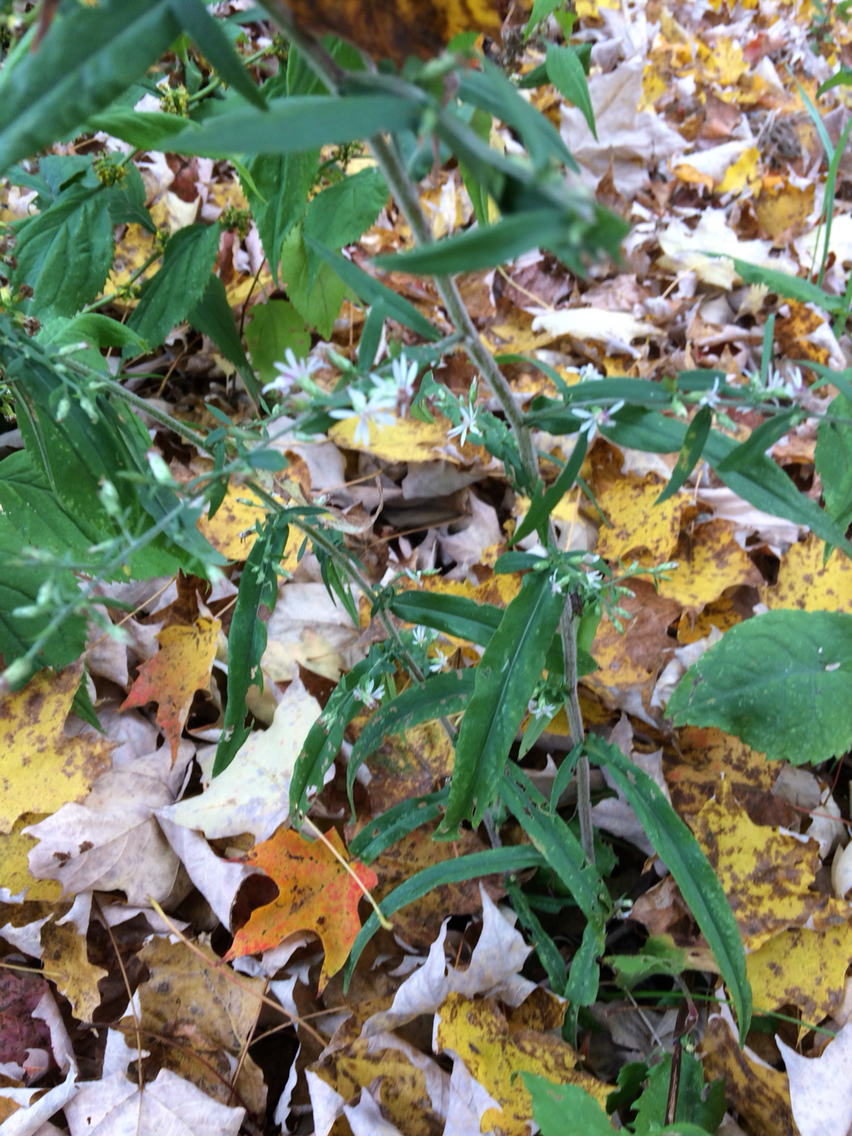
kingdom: Plantae
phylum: Tracheophyta
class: Magnoliopsida
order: Asterales
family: Asteraceae
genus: Symphyotrichum
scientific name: Symphyotrichum lateriflorum
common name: Calico aster
